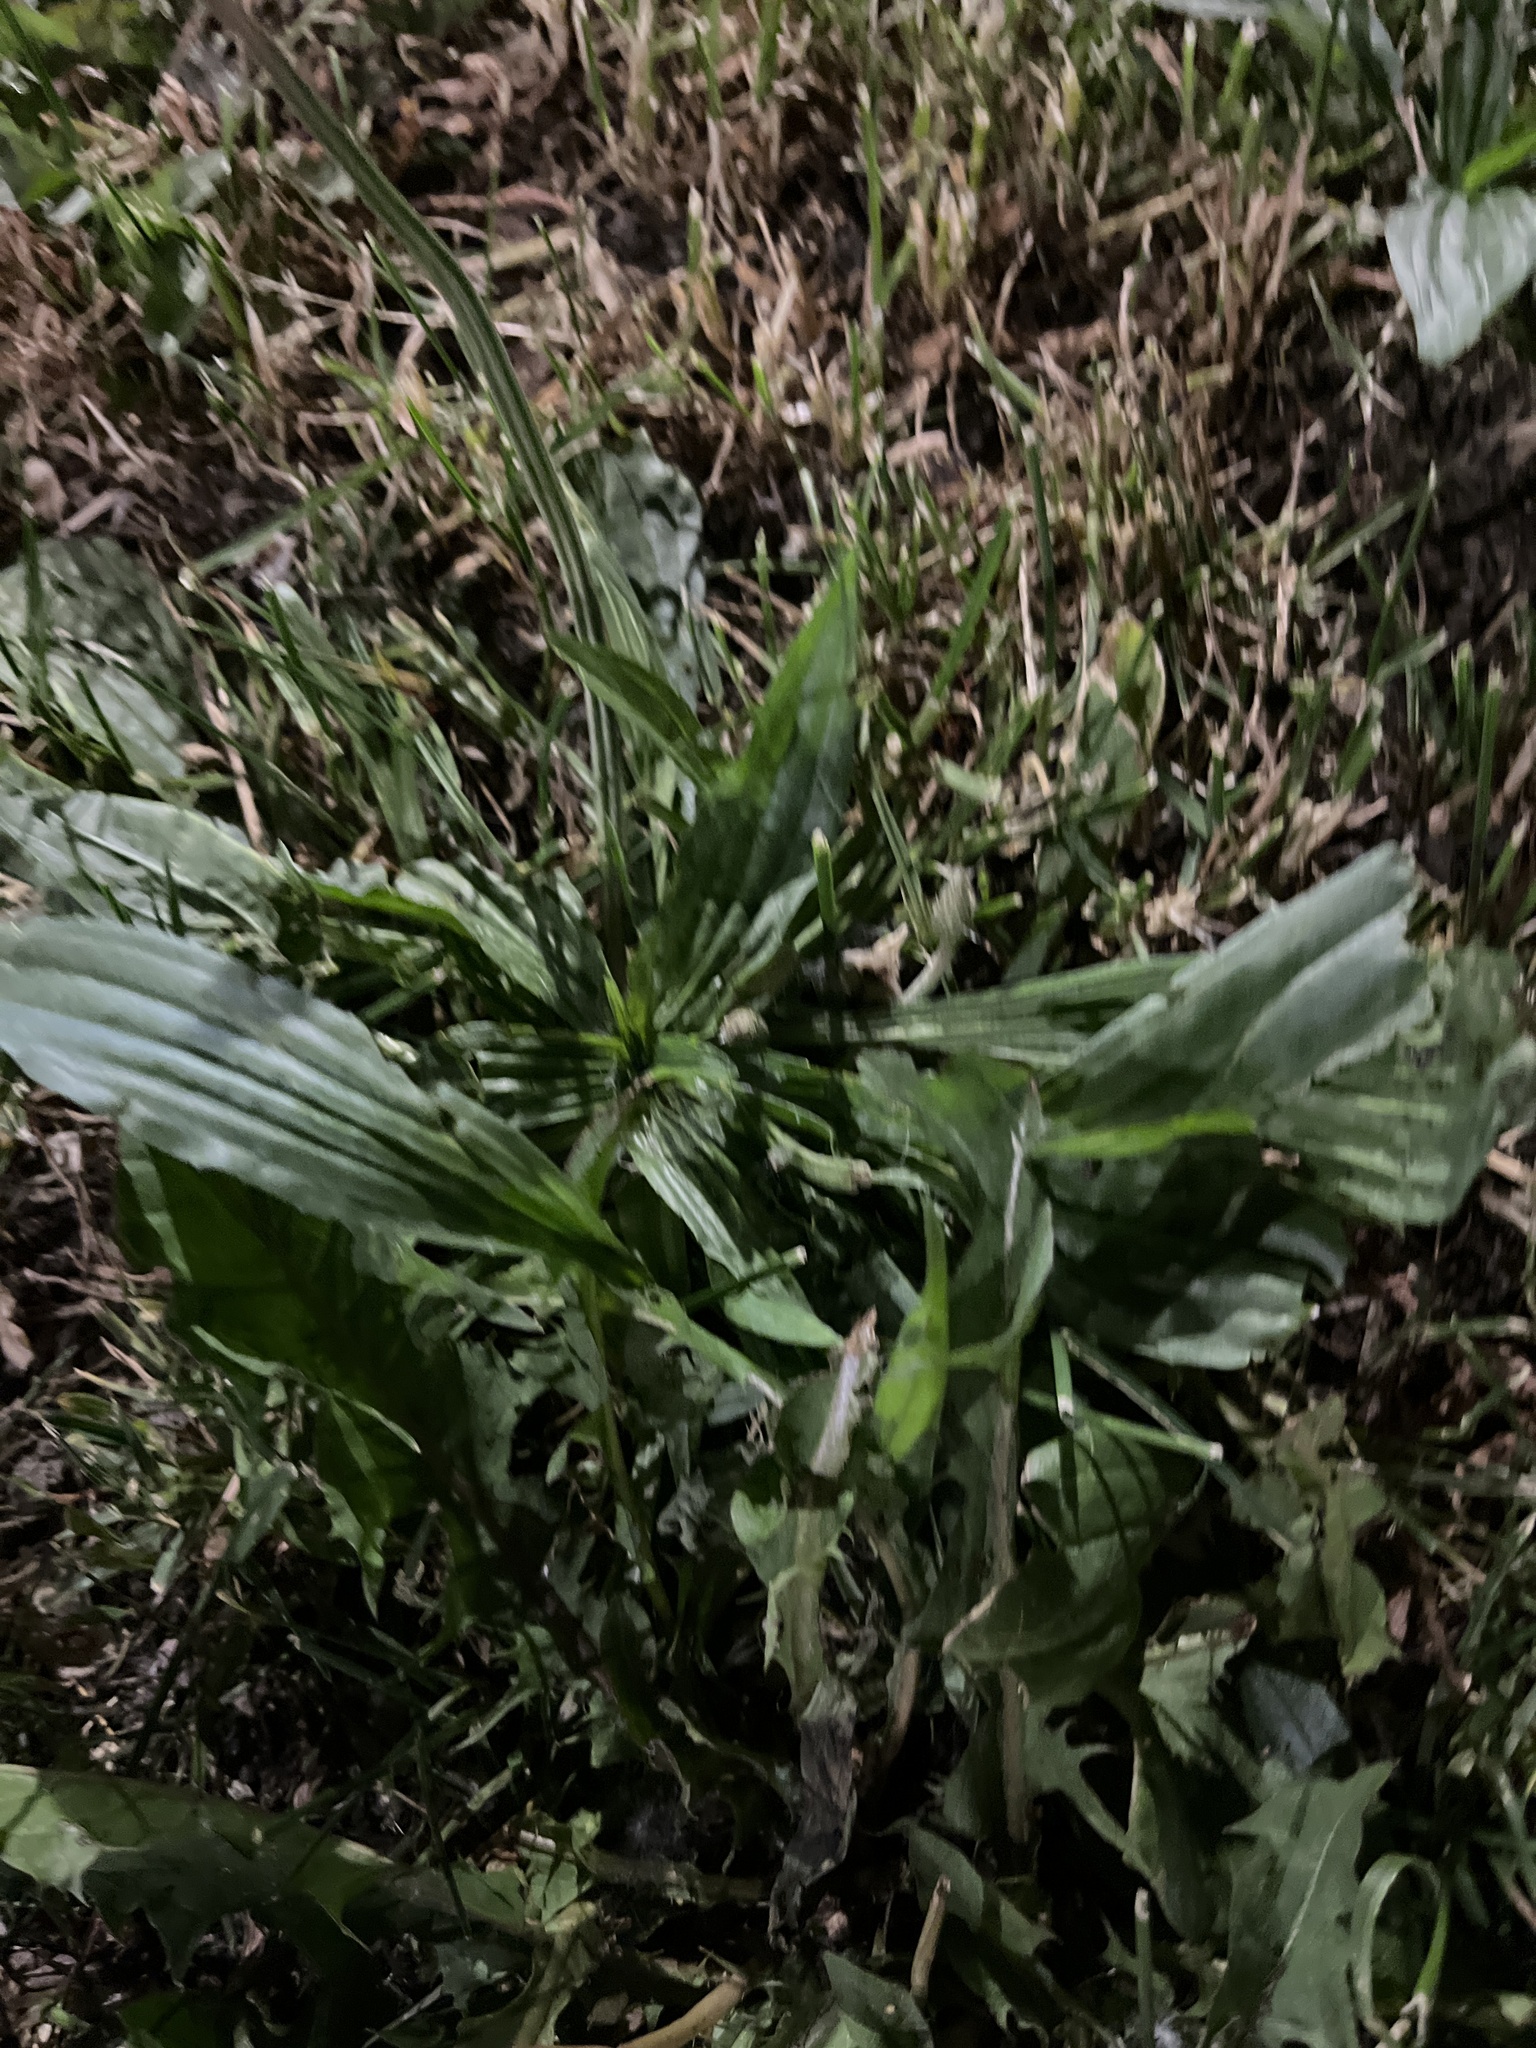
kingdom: Plantae
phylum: Tracheophyta
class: Magnoliopsida
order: Lamiales
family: Plantaginaceae
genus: Plantago
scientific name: Plantago lanceolata
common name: Ribwort plantain
